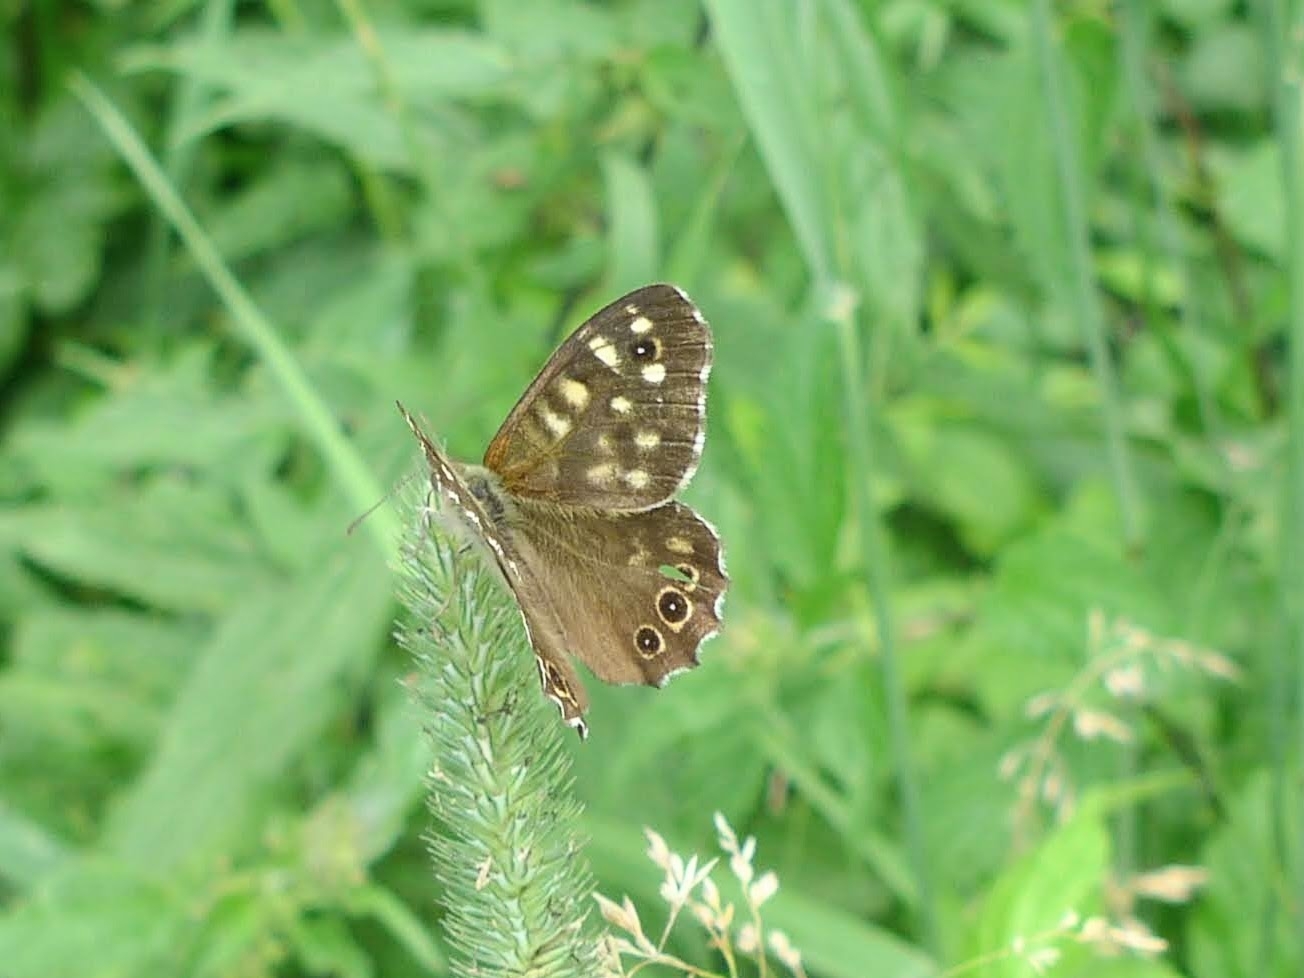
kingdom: Animalia
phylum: Arthropoda
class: Insecta
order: Lepidoptera
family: Nymphalidae
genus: Pararge
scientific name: Pararge aegeria
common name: Speckled wood
